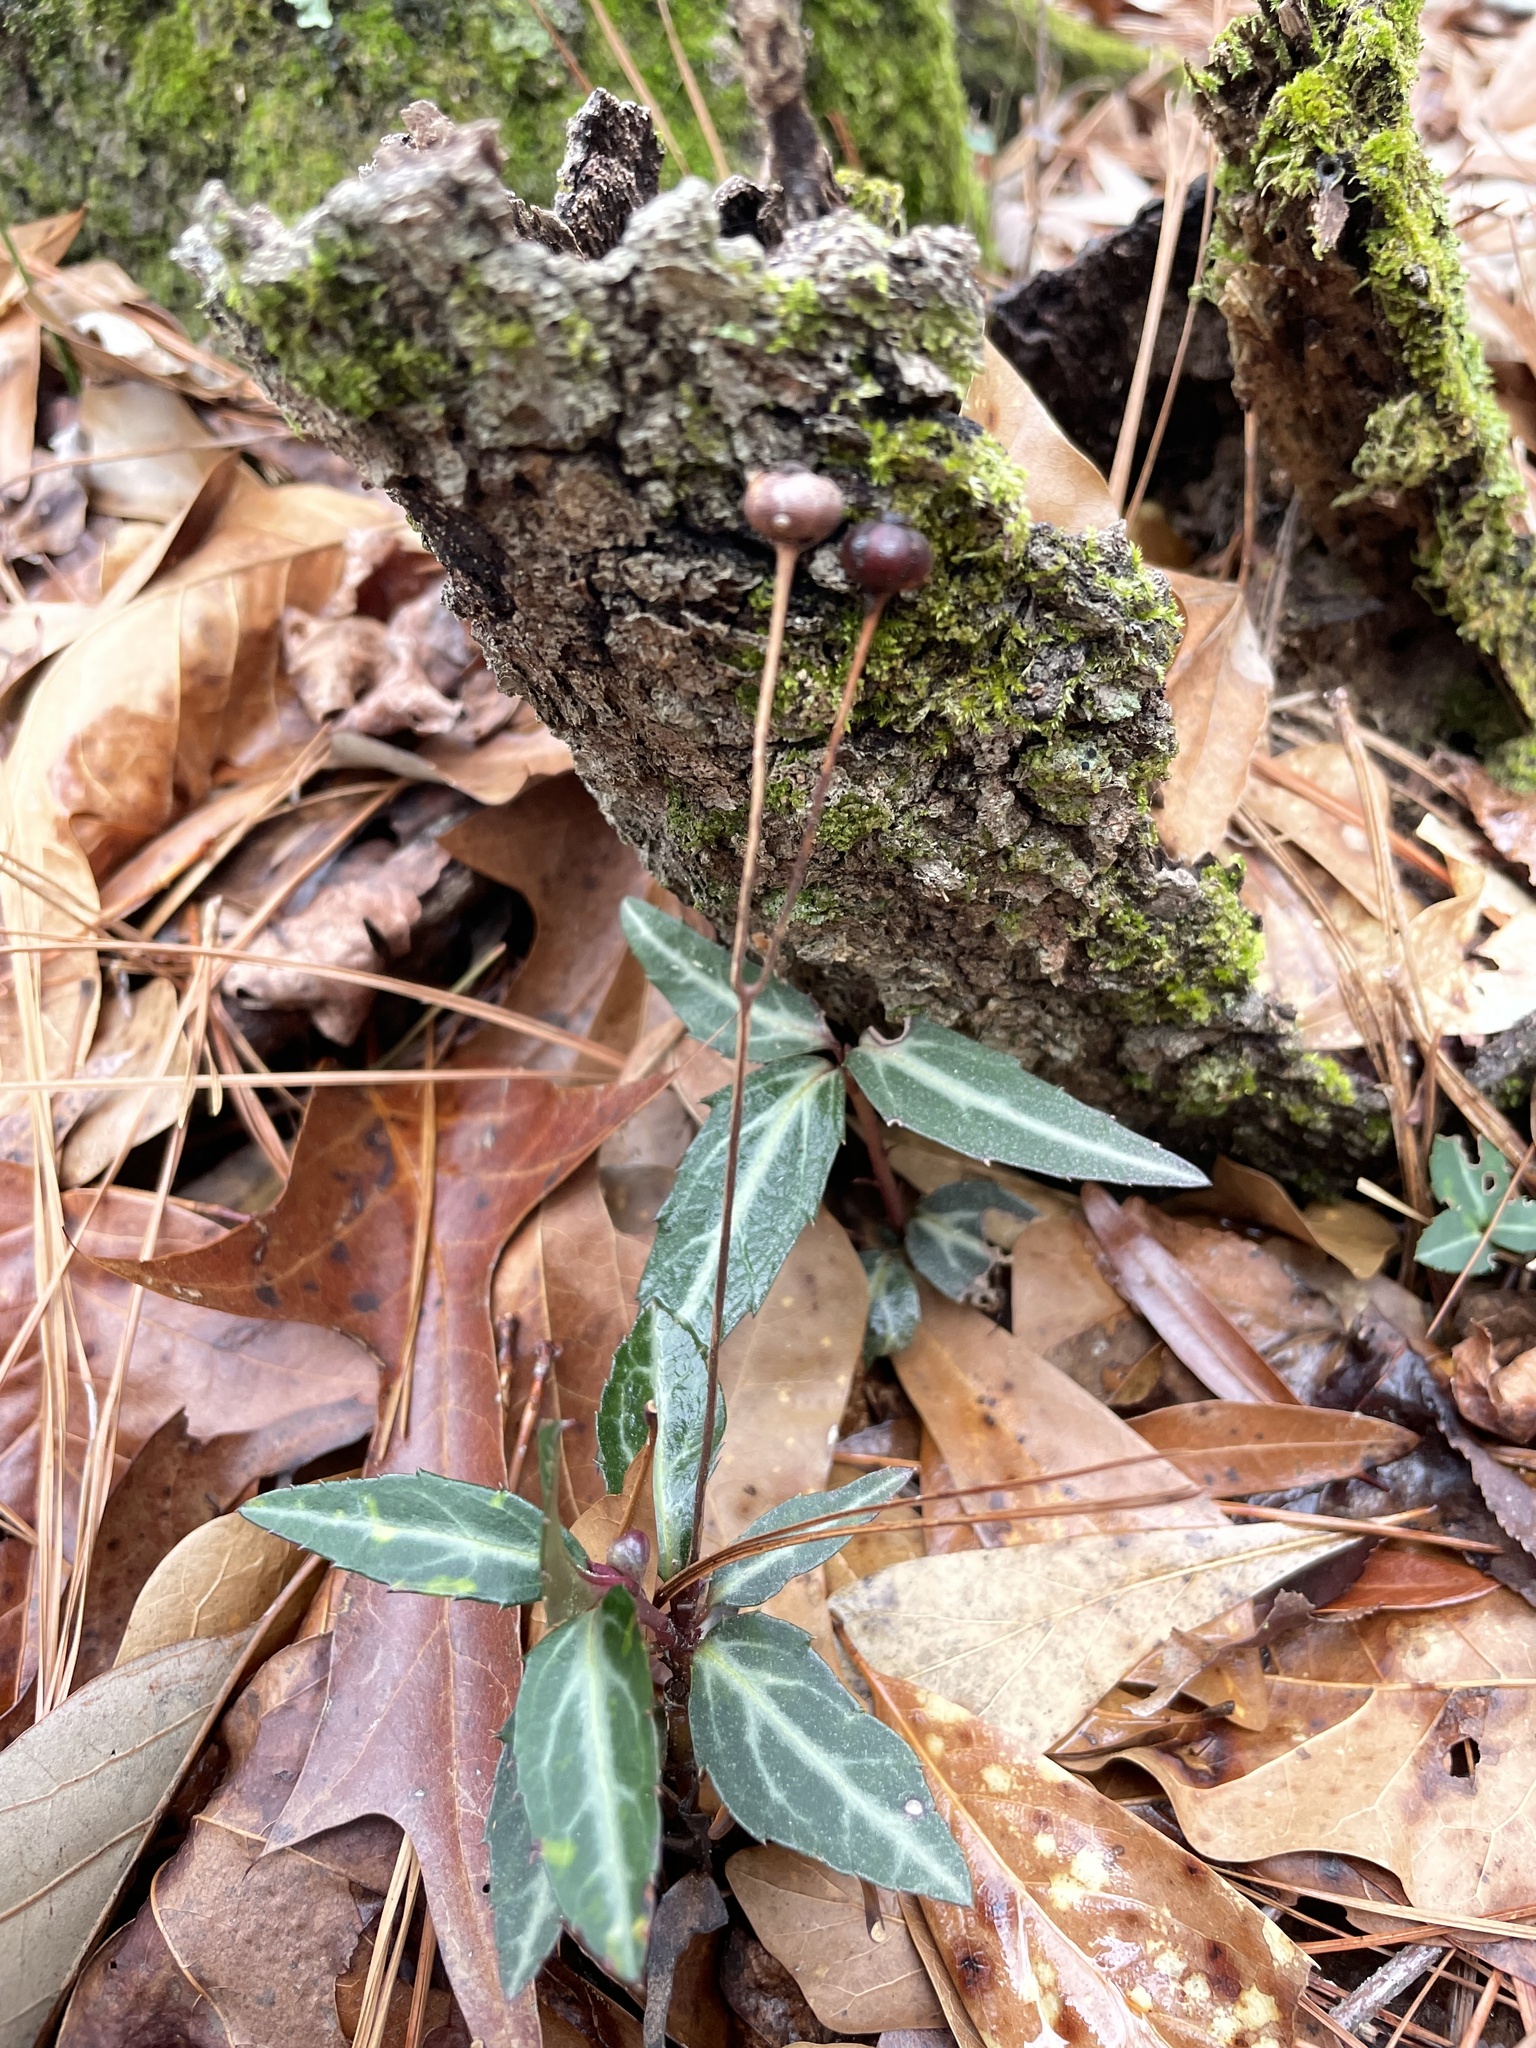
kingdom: Plantae
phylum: Tracheophyta
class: Magnoliopsida
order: Ericales
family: Ericaceae
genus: Chimaphila
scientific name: Chimaphila maculata
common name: Spotted pipsissewa
